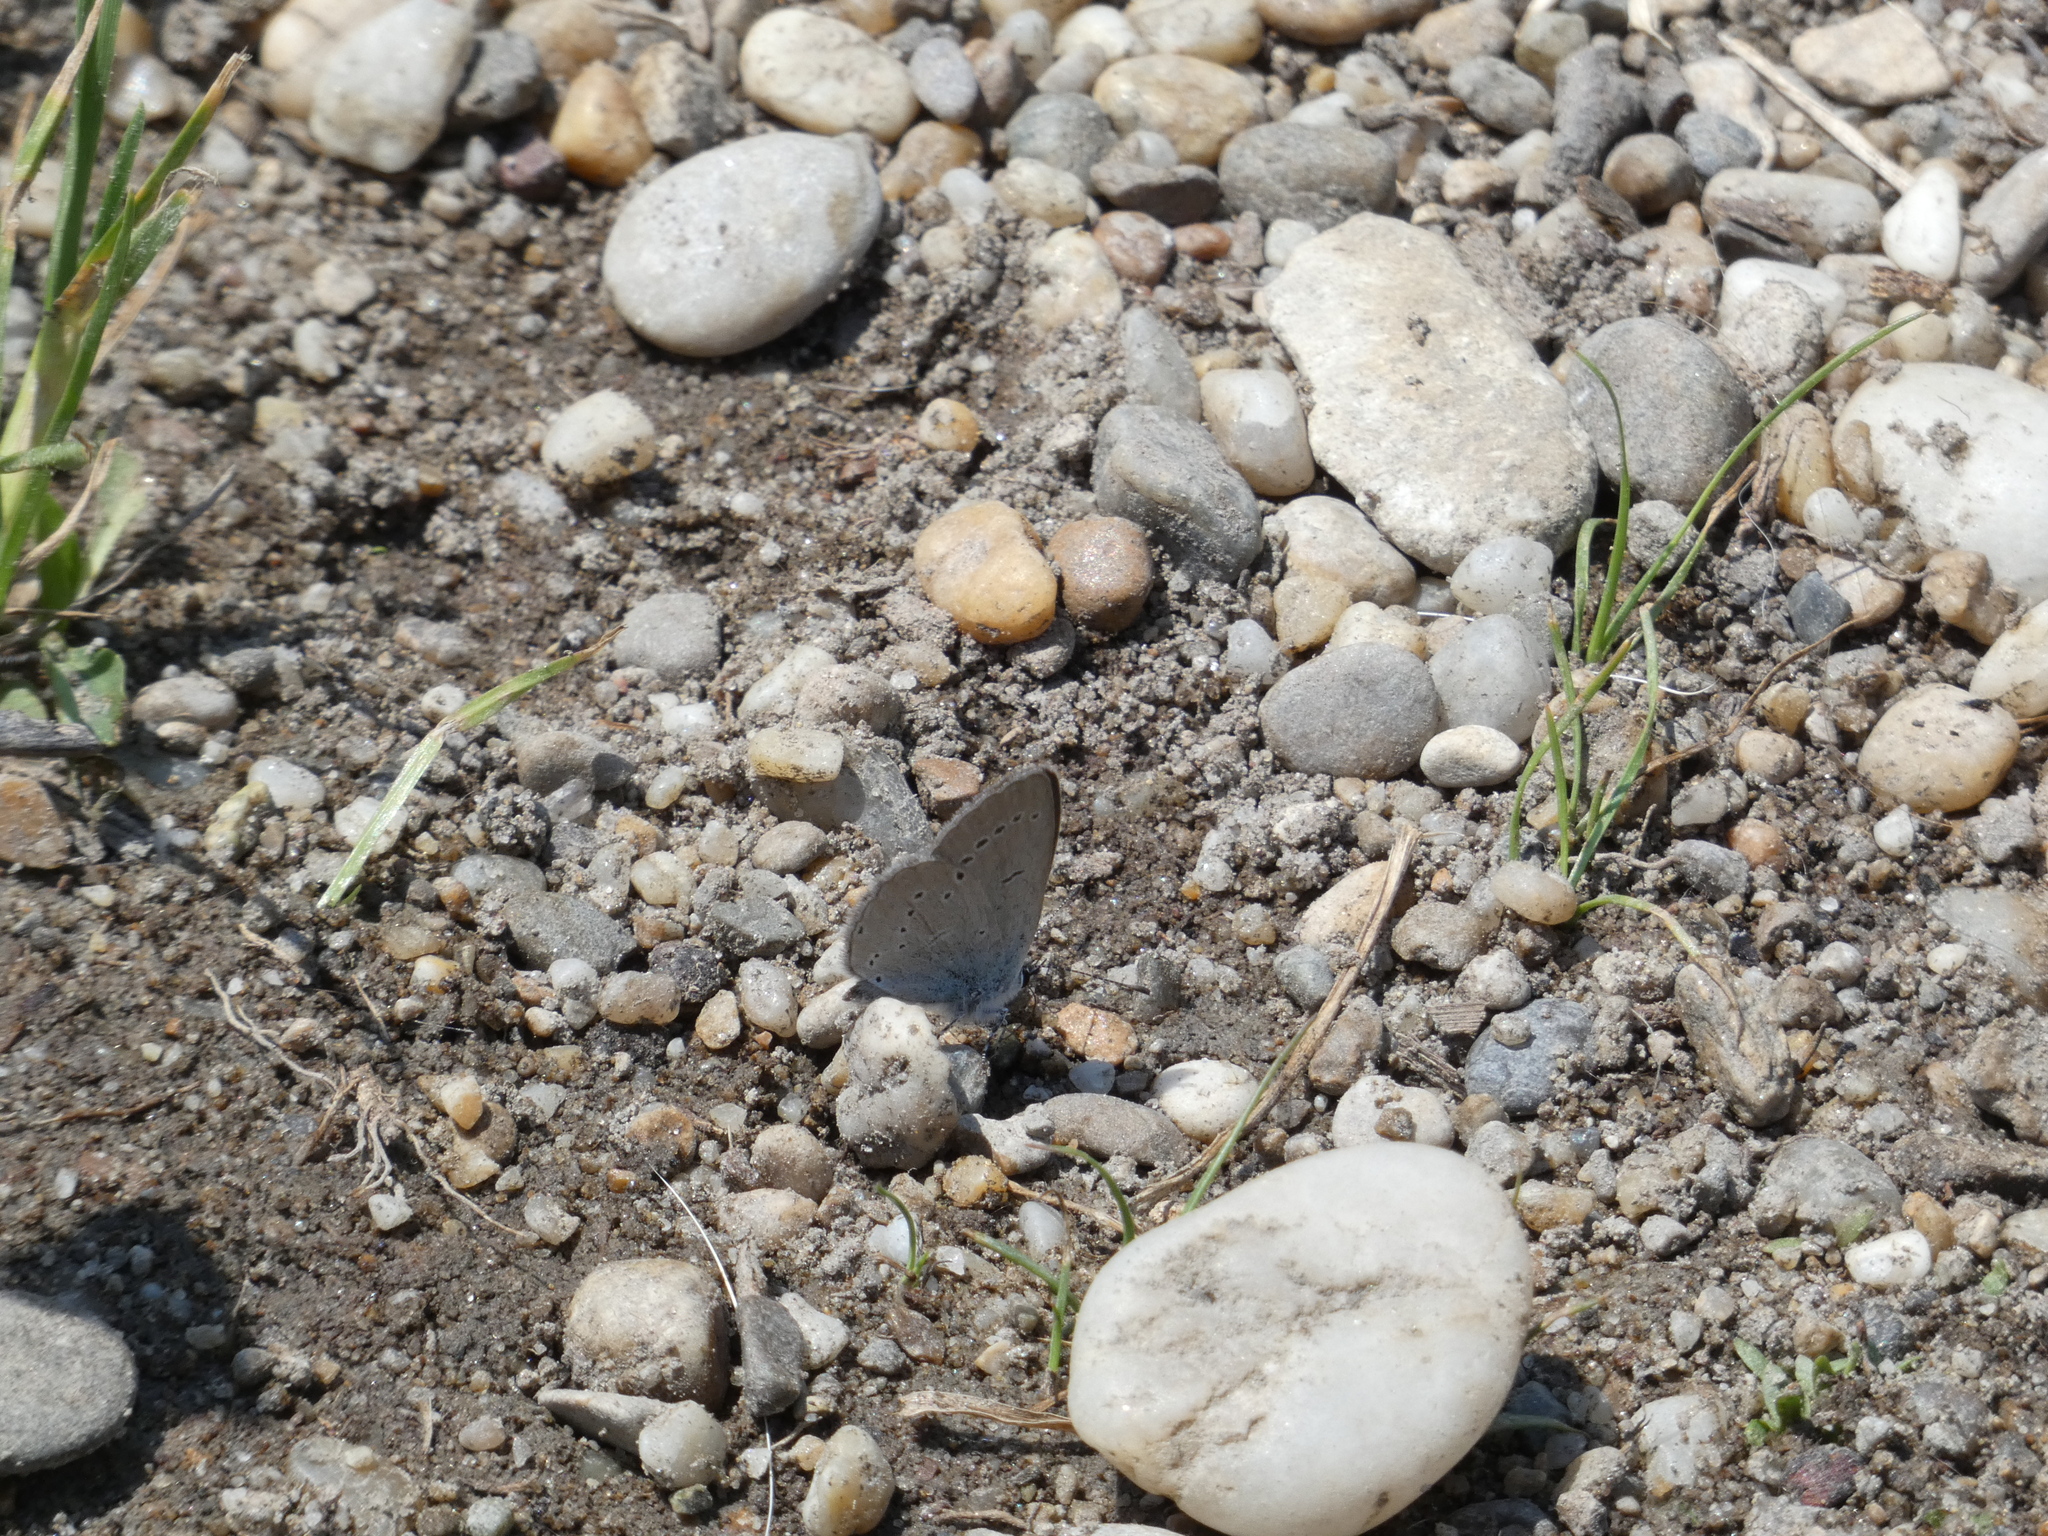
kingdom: Animalia
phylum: Arthropoda
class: Insecta
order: Lepidoptera
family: Lycaenidae
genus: Cupido
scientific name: Cupido minimus
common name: Small blue
